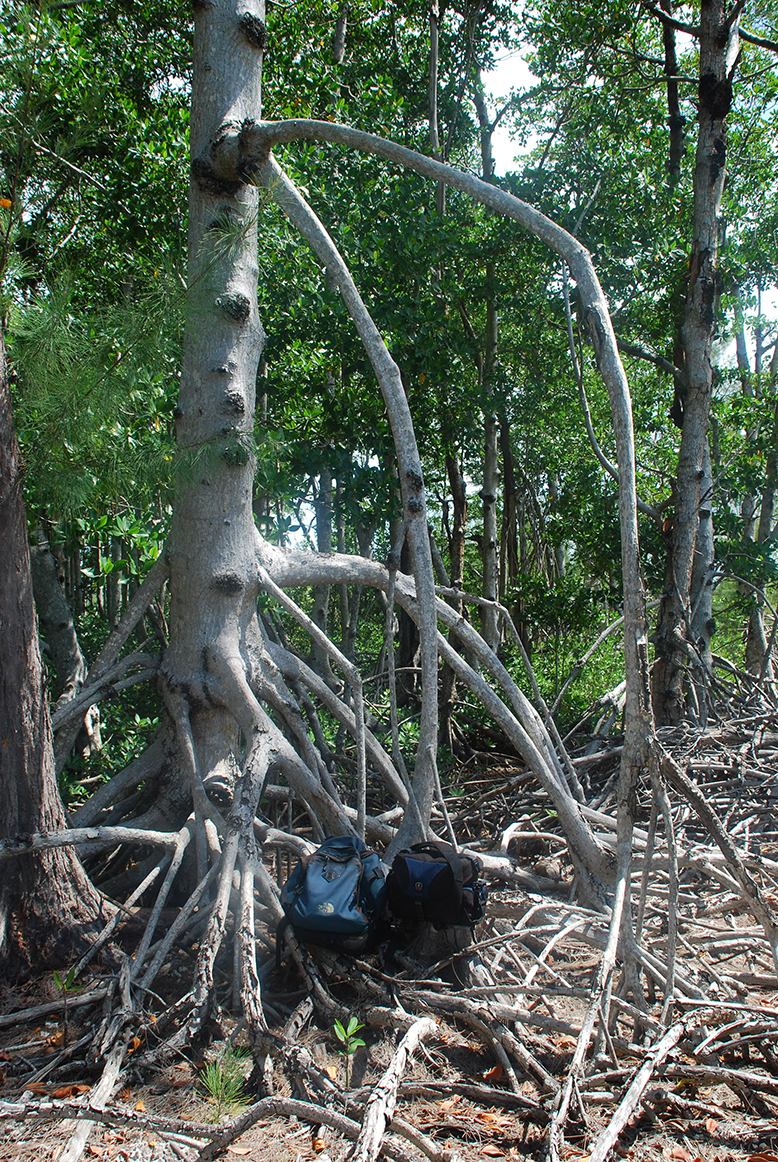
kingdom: Plantae
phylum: Tracheophyta
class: Magnoliopsida
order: Malpighiales
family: Rhizophoraceae
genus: Rhizophora
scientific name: Rhizophora mangle
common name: Red mangrove
